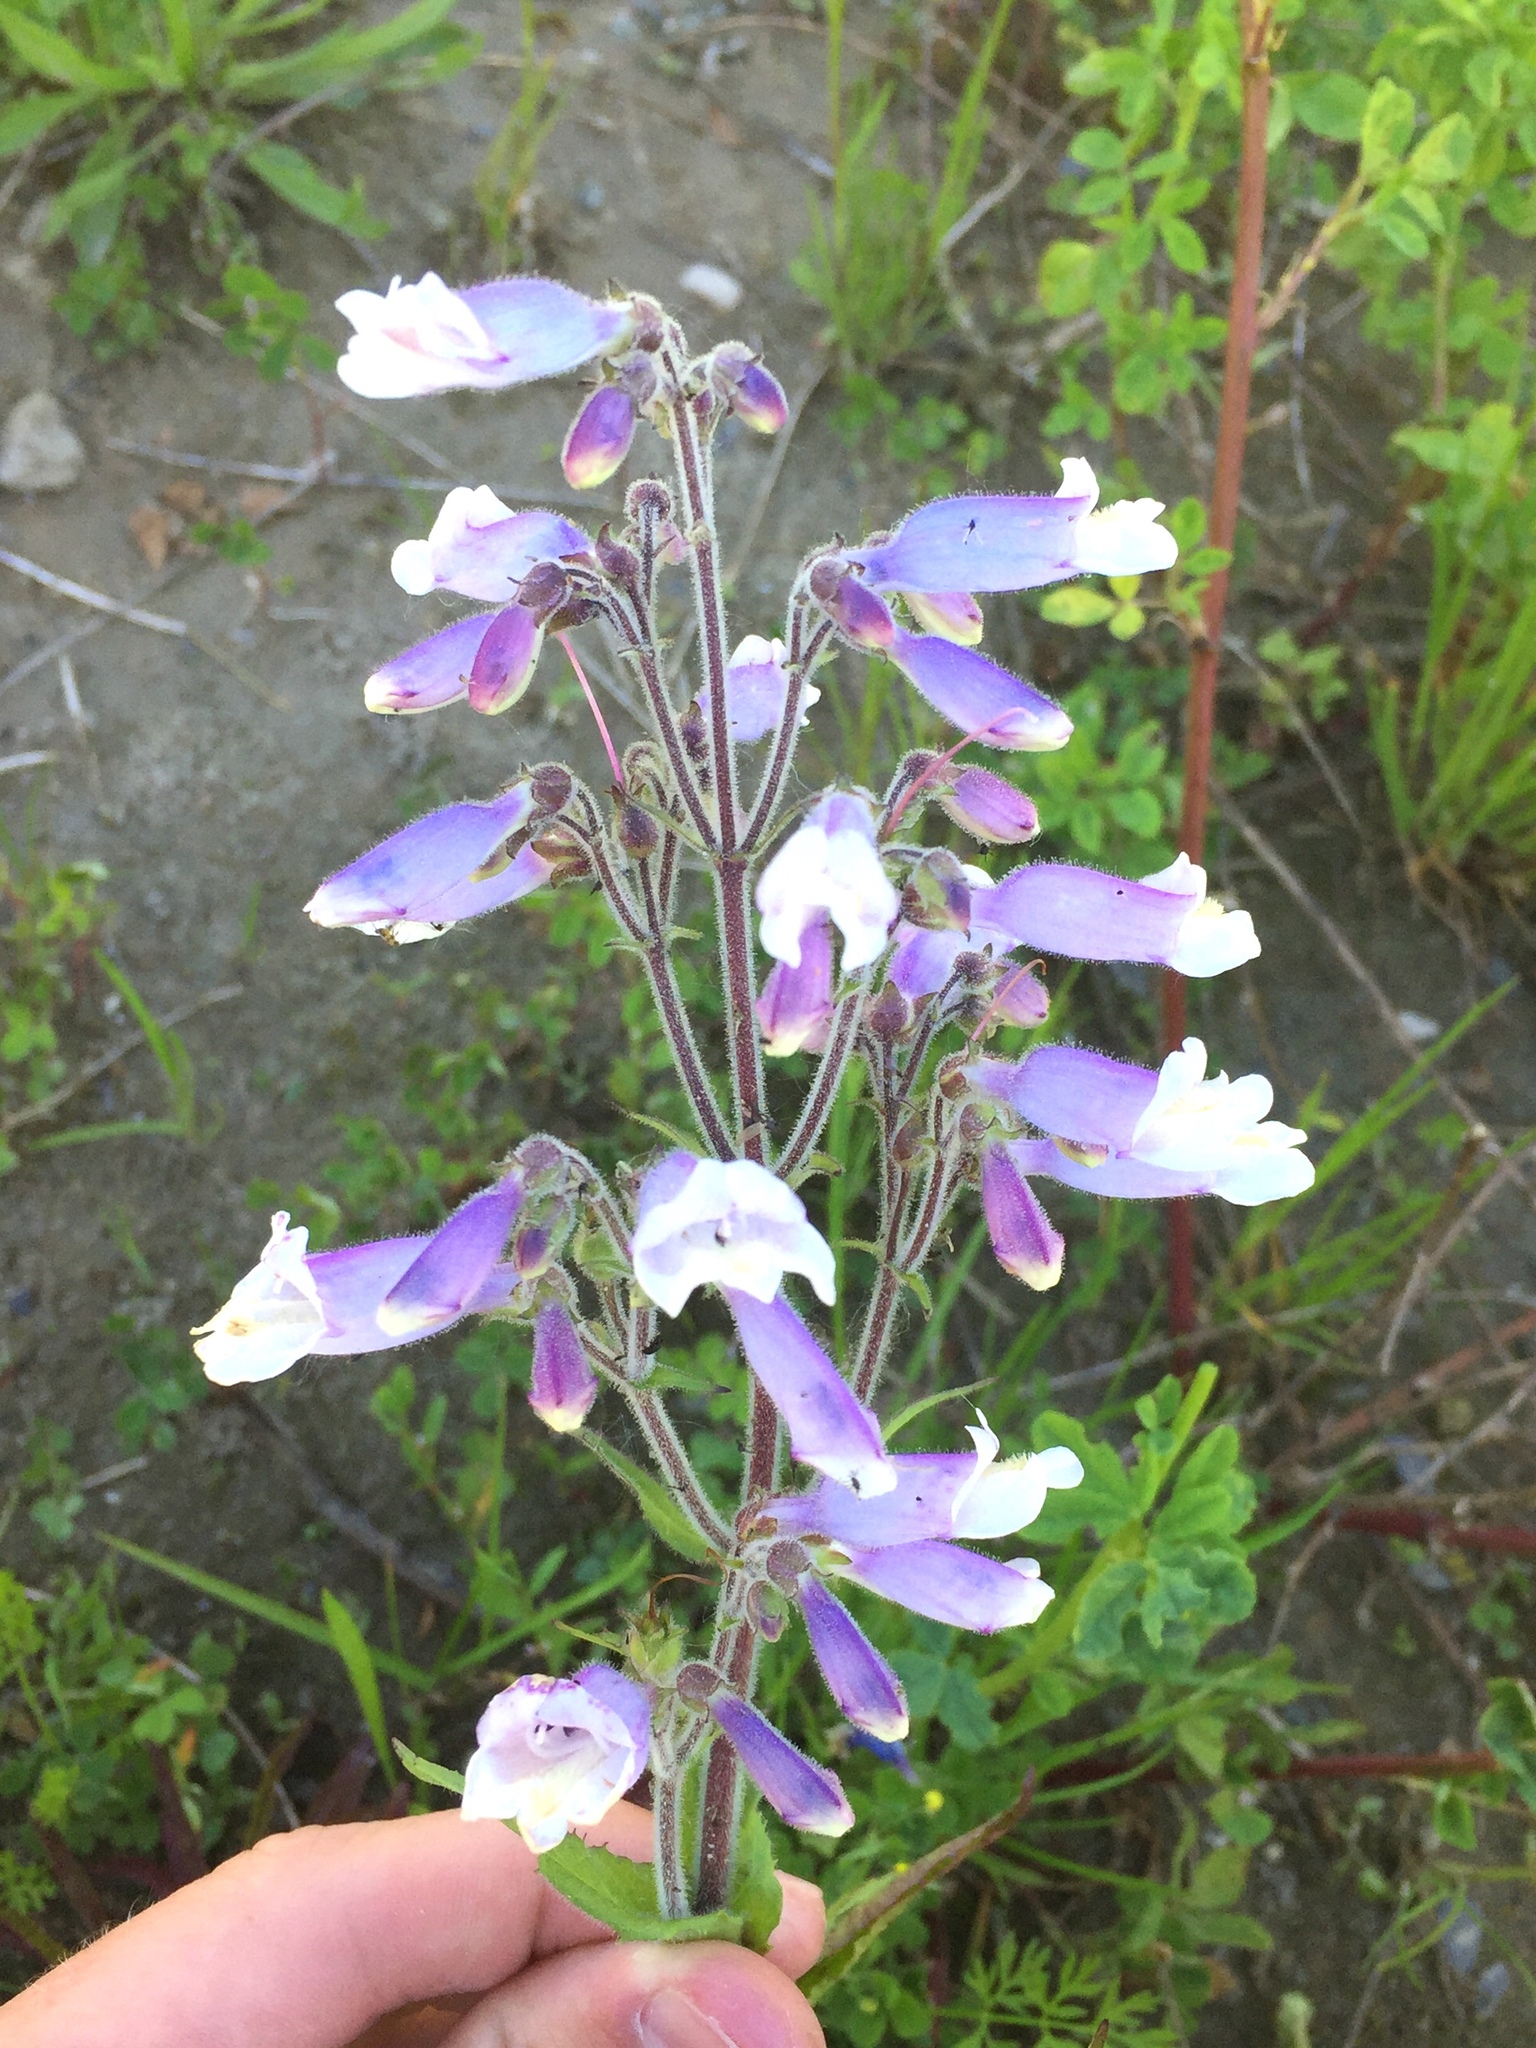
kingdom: Plantae
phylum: Tracheophyta
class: Magnoliopsida
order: Lamiales
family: Plantaginaceae
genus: Penstemon
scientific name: Penstemon hirsutus
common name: Hairy beardtongue
